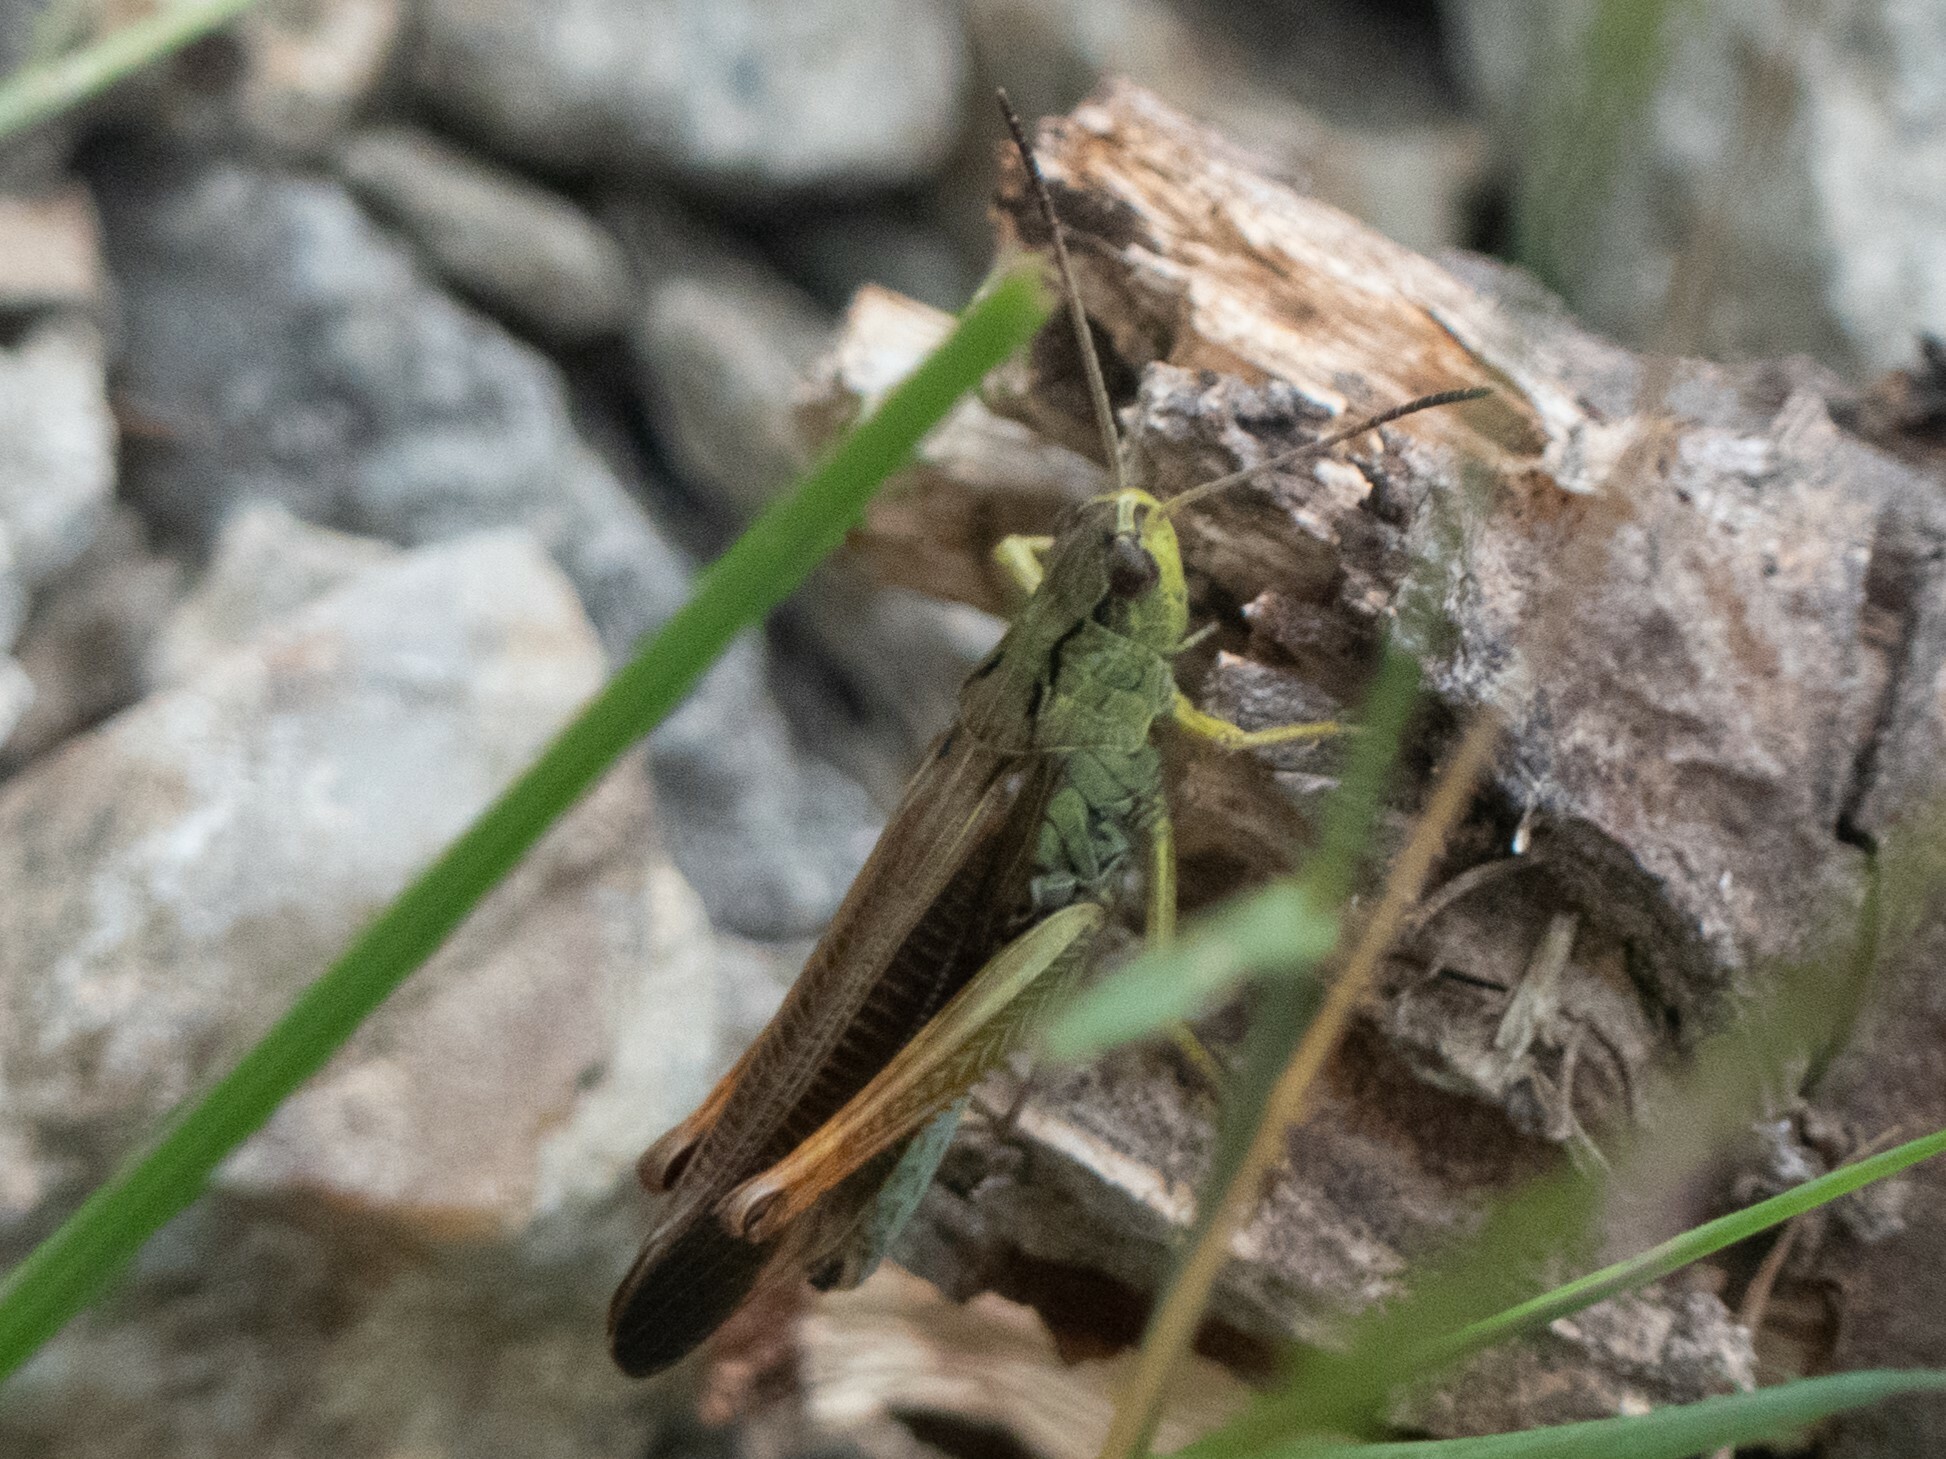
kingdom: Animalia
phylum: Arthropoda
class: Insecta
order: Orthoptera
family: Acrididae
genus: Stauroderus
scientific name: Stauroderus scalaris
